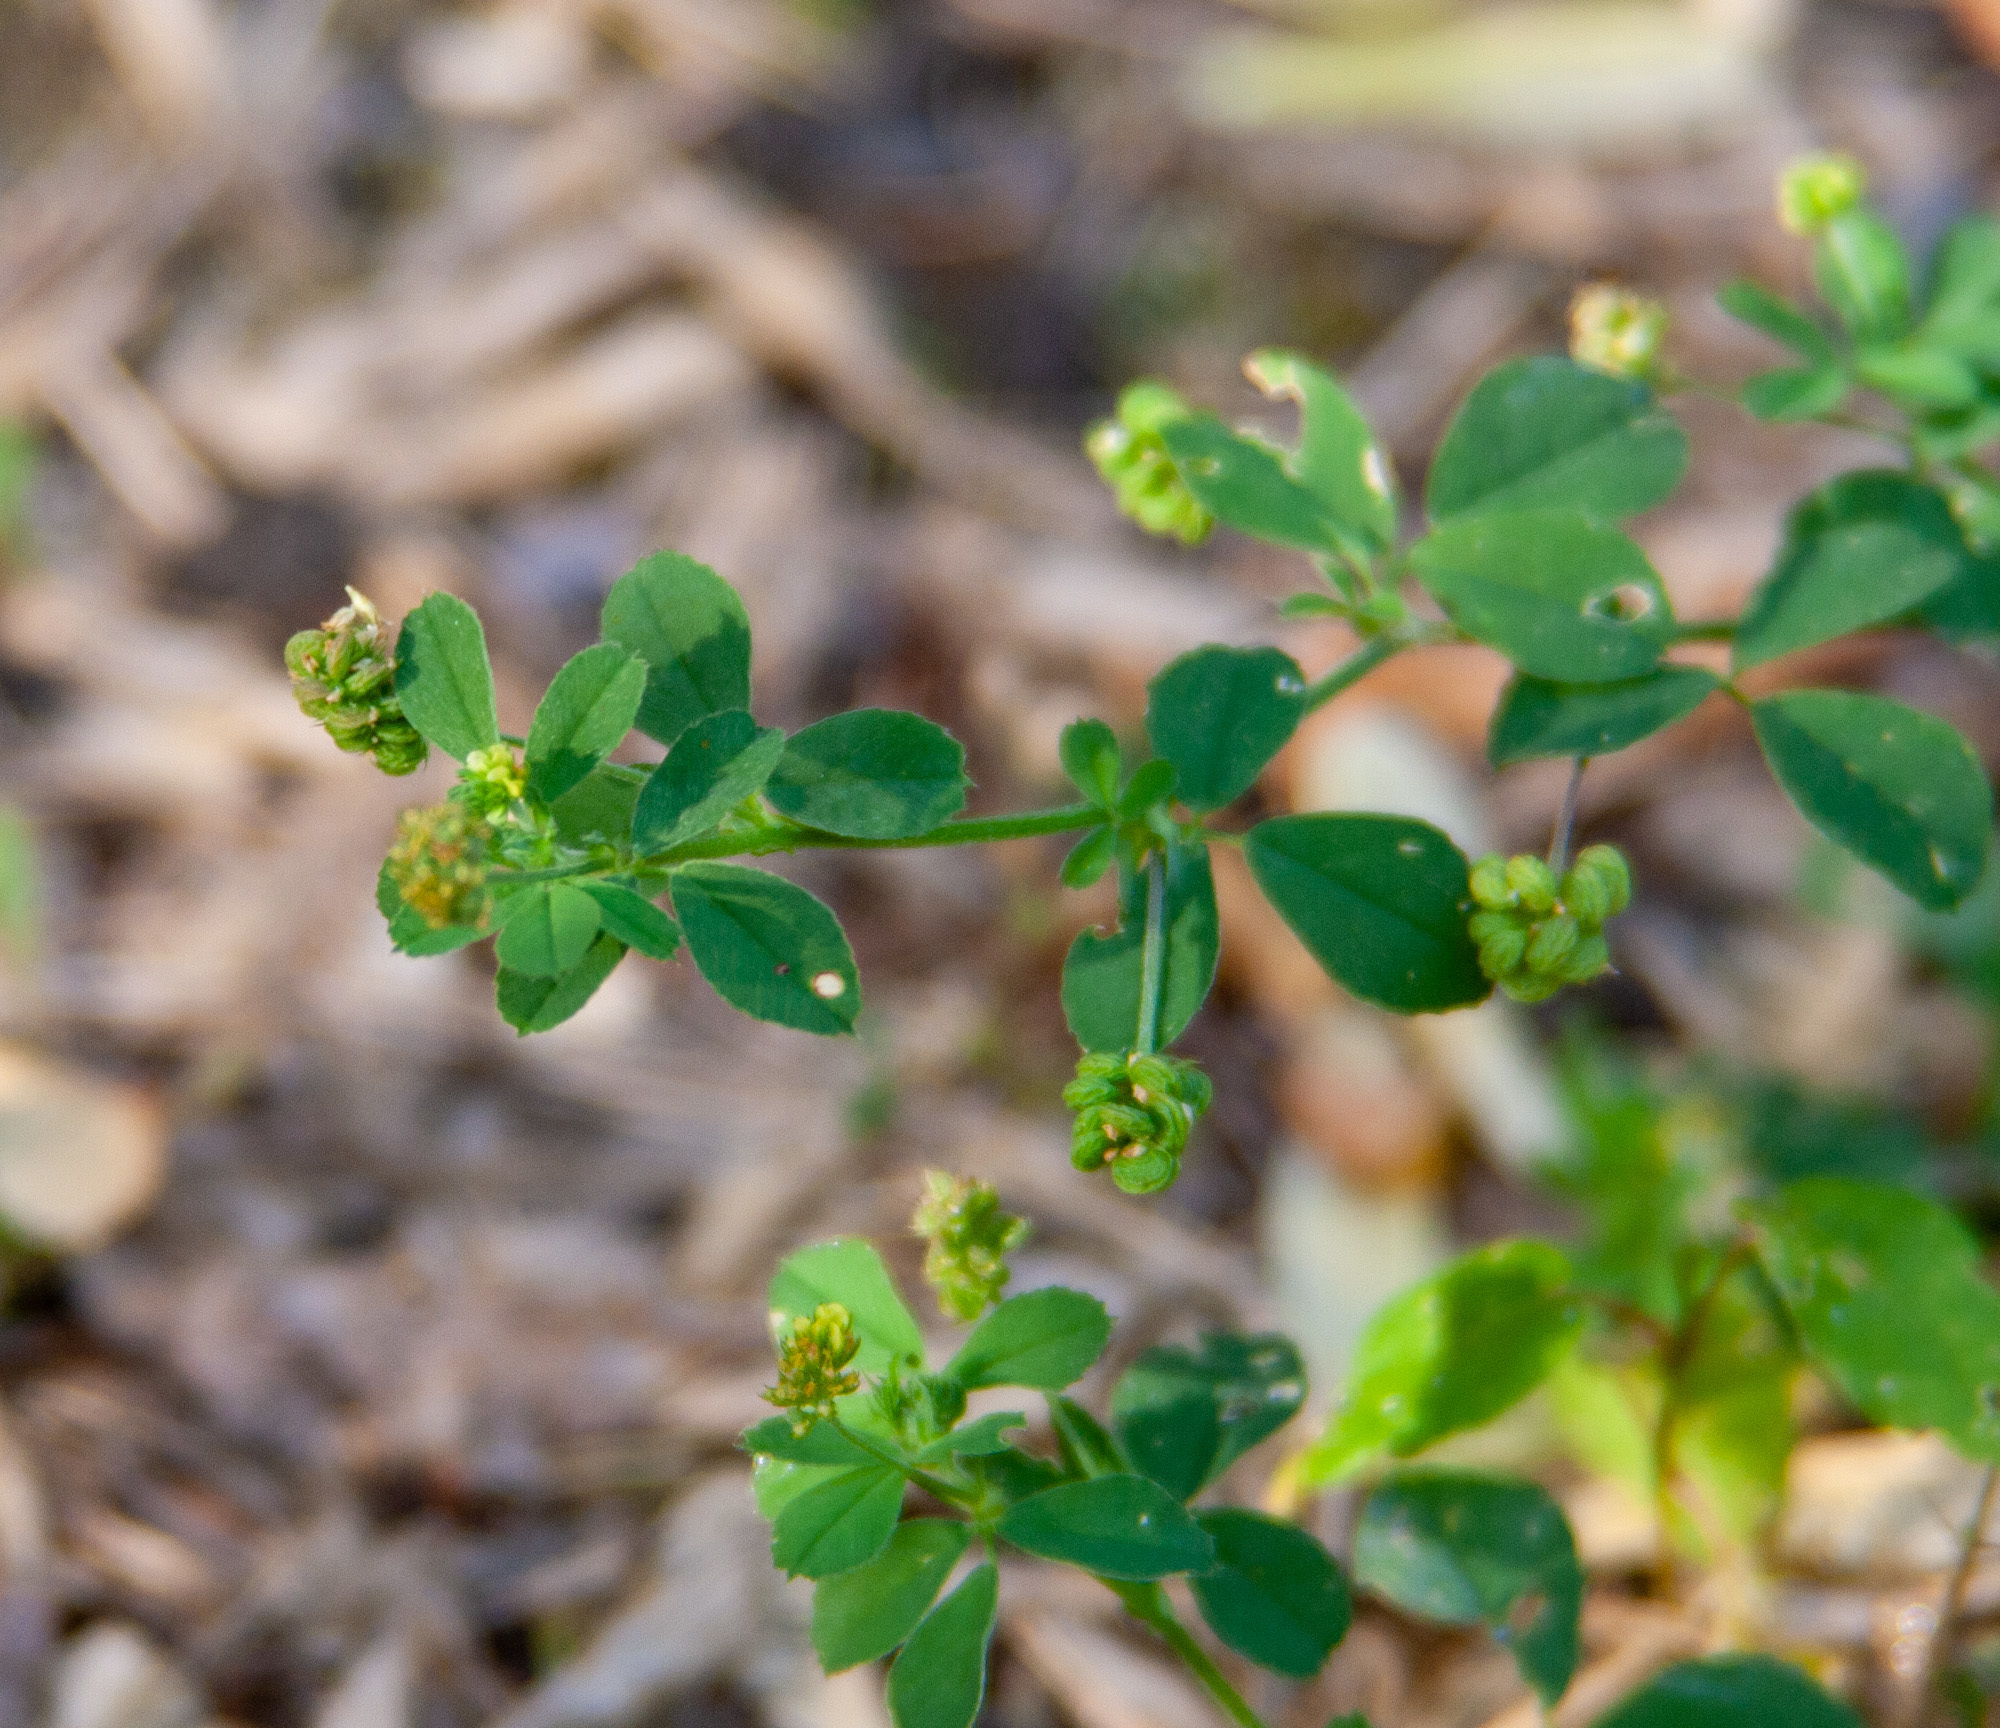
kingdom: Plantae
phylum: Tracheophyta
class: Magnoliopsida
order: Fabales
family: Fabaceae
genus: Medicago
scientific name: Medicago lupulina
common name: Black medick
